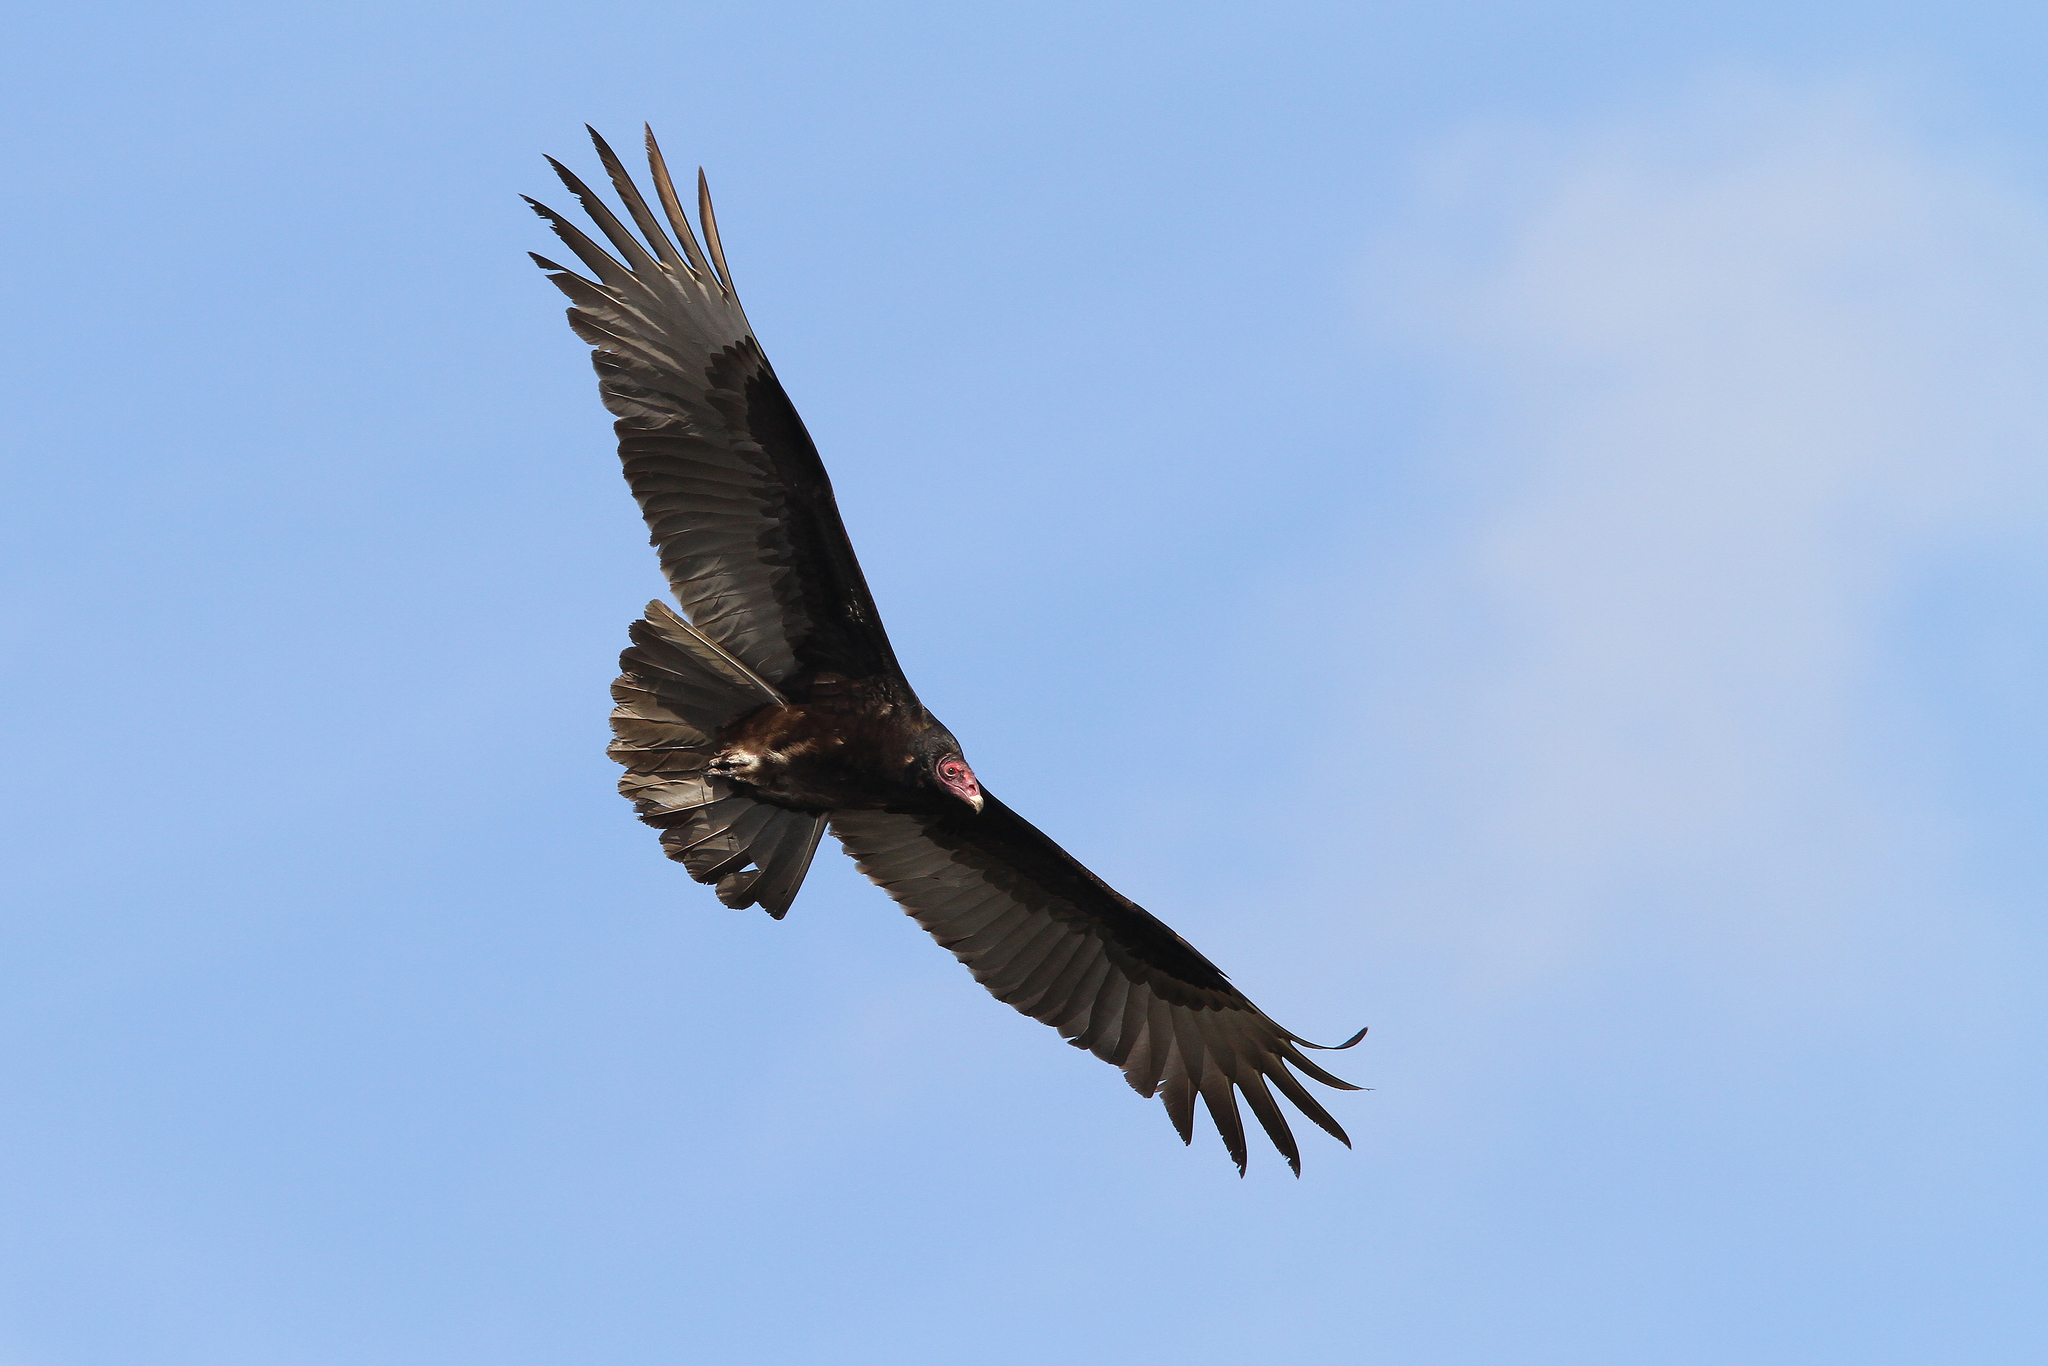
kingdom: Animalia
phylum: Chordata
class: Aves
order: Accipitriformes
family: Cathartidae
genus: Cathartes
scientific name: Cathartes aura
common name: Turkey vulture
